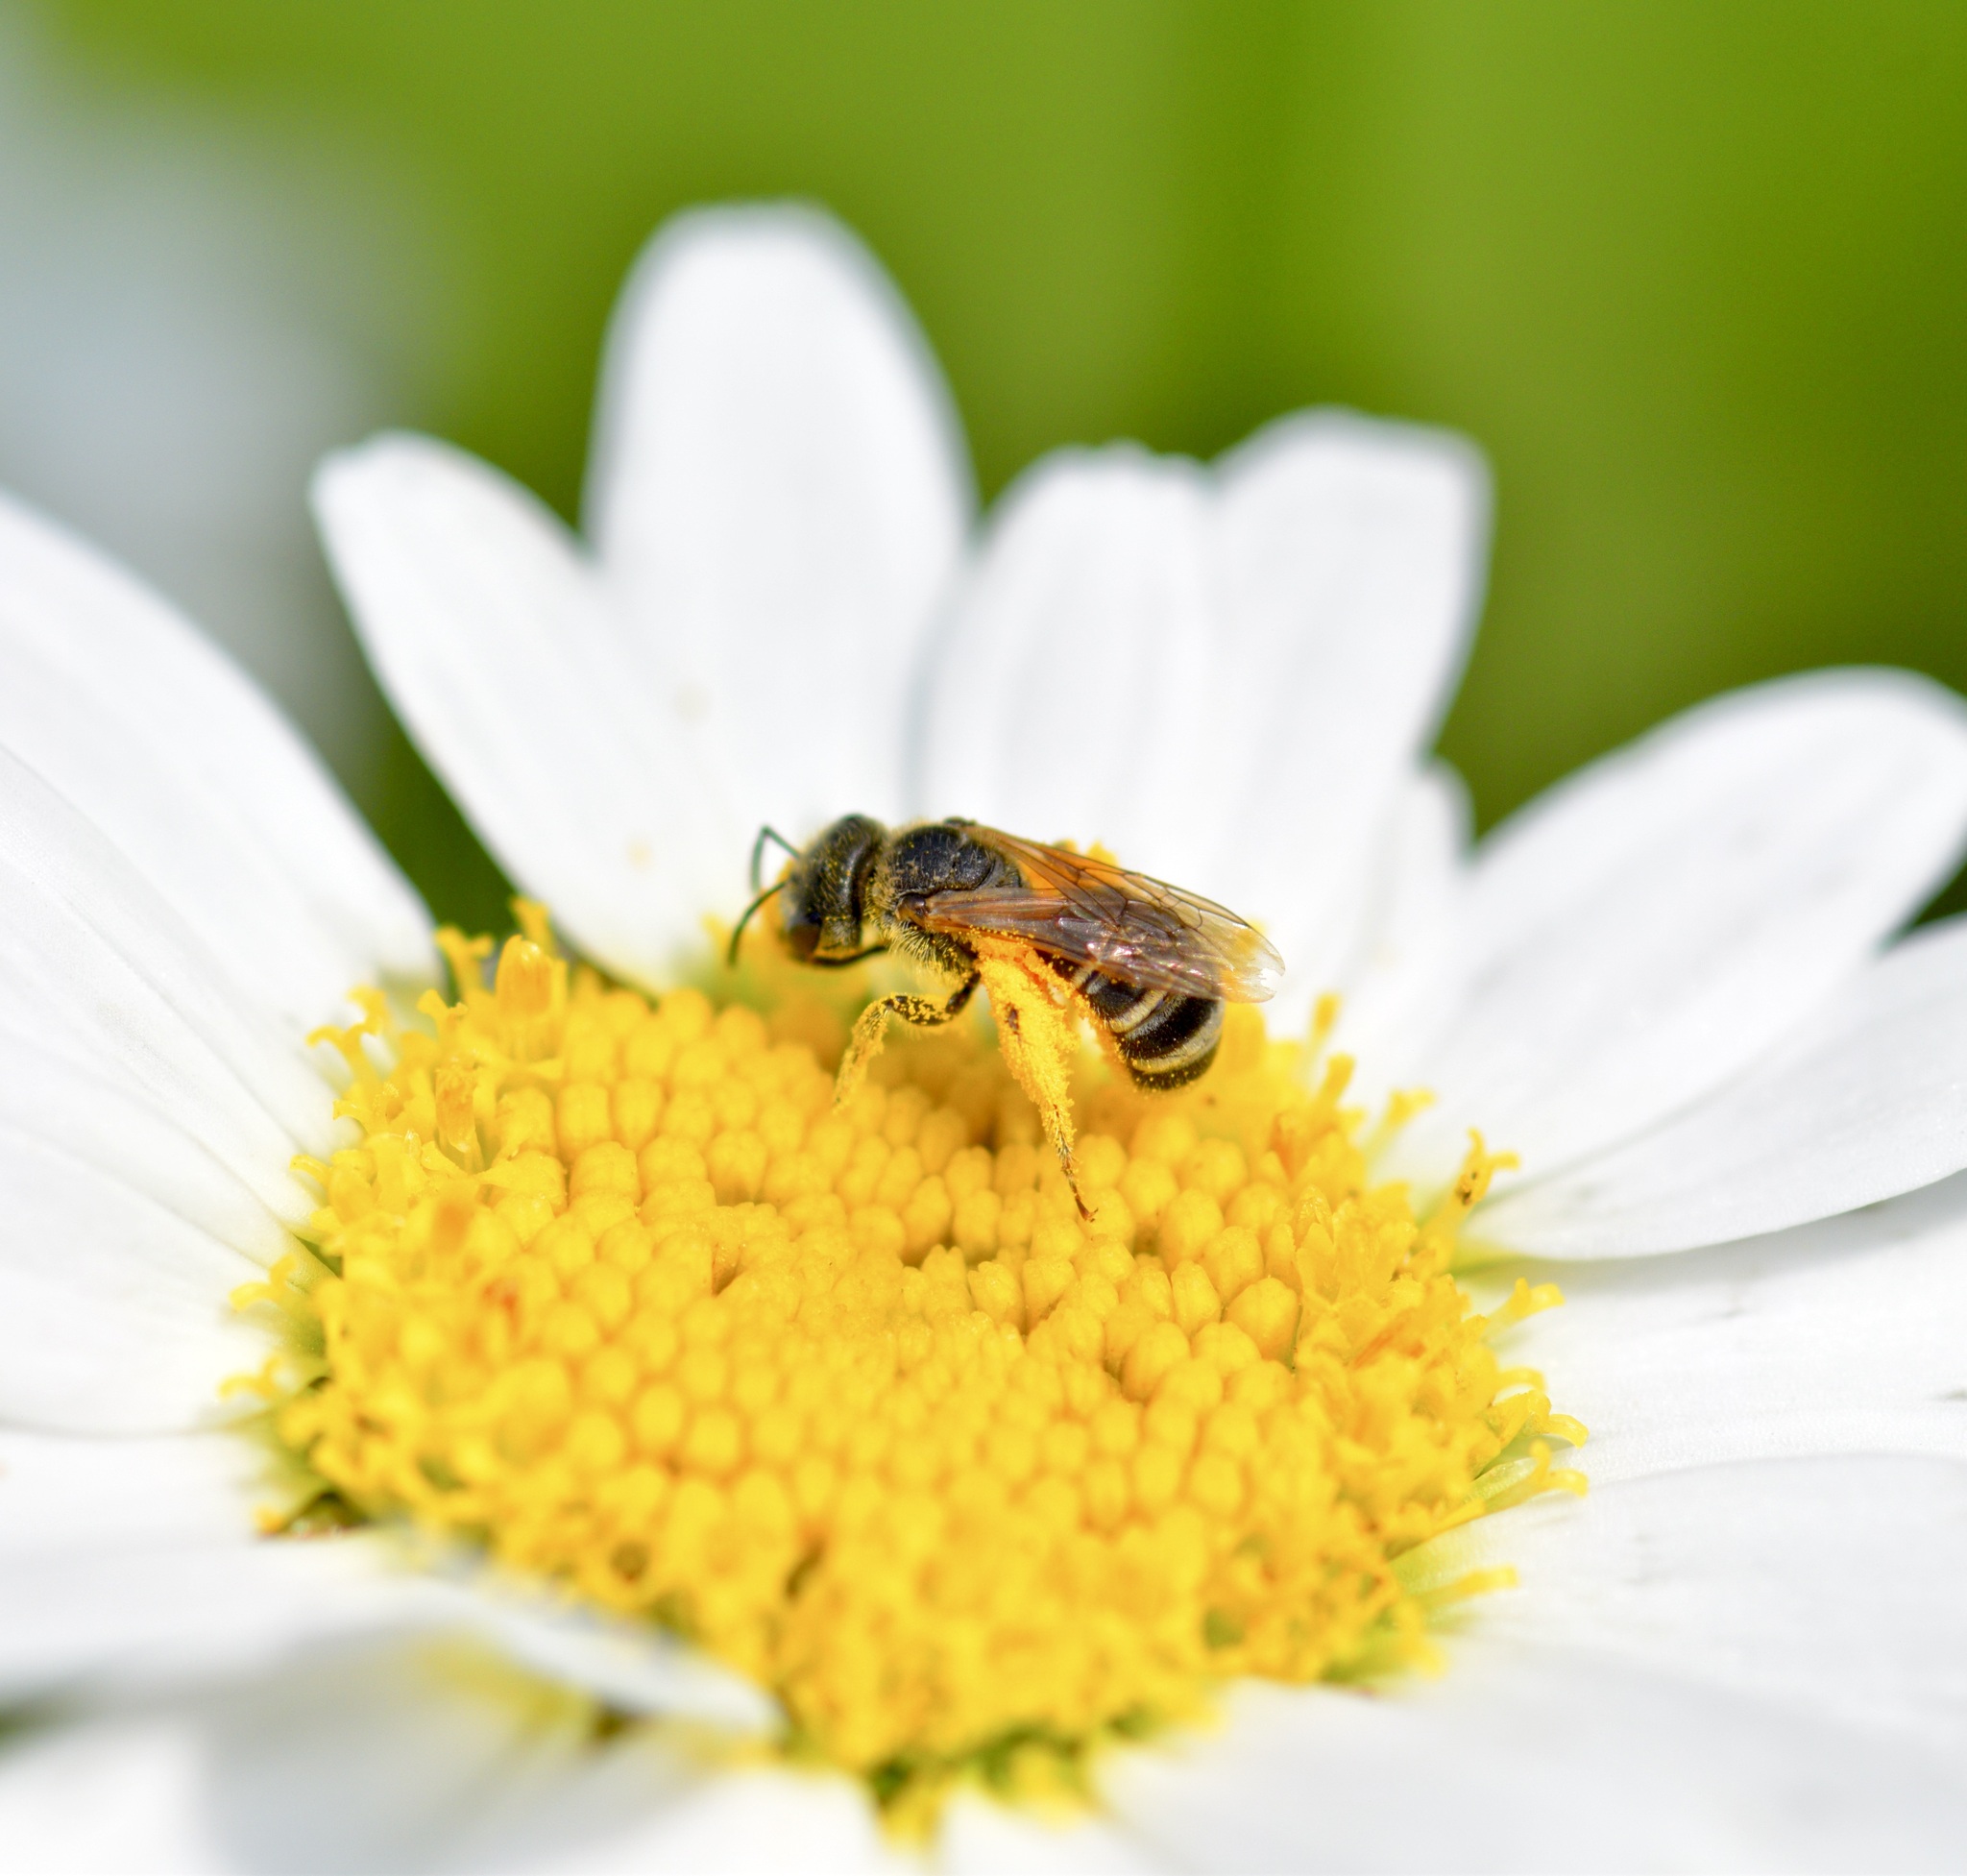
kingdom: Animalia
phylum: Arthropoda
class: Insecta
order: Hymenoptera
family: Halictidae
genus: Halictus
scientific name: Halictus ligatus
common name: Ligated furrow bee
